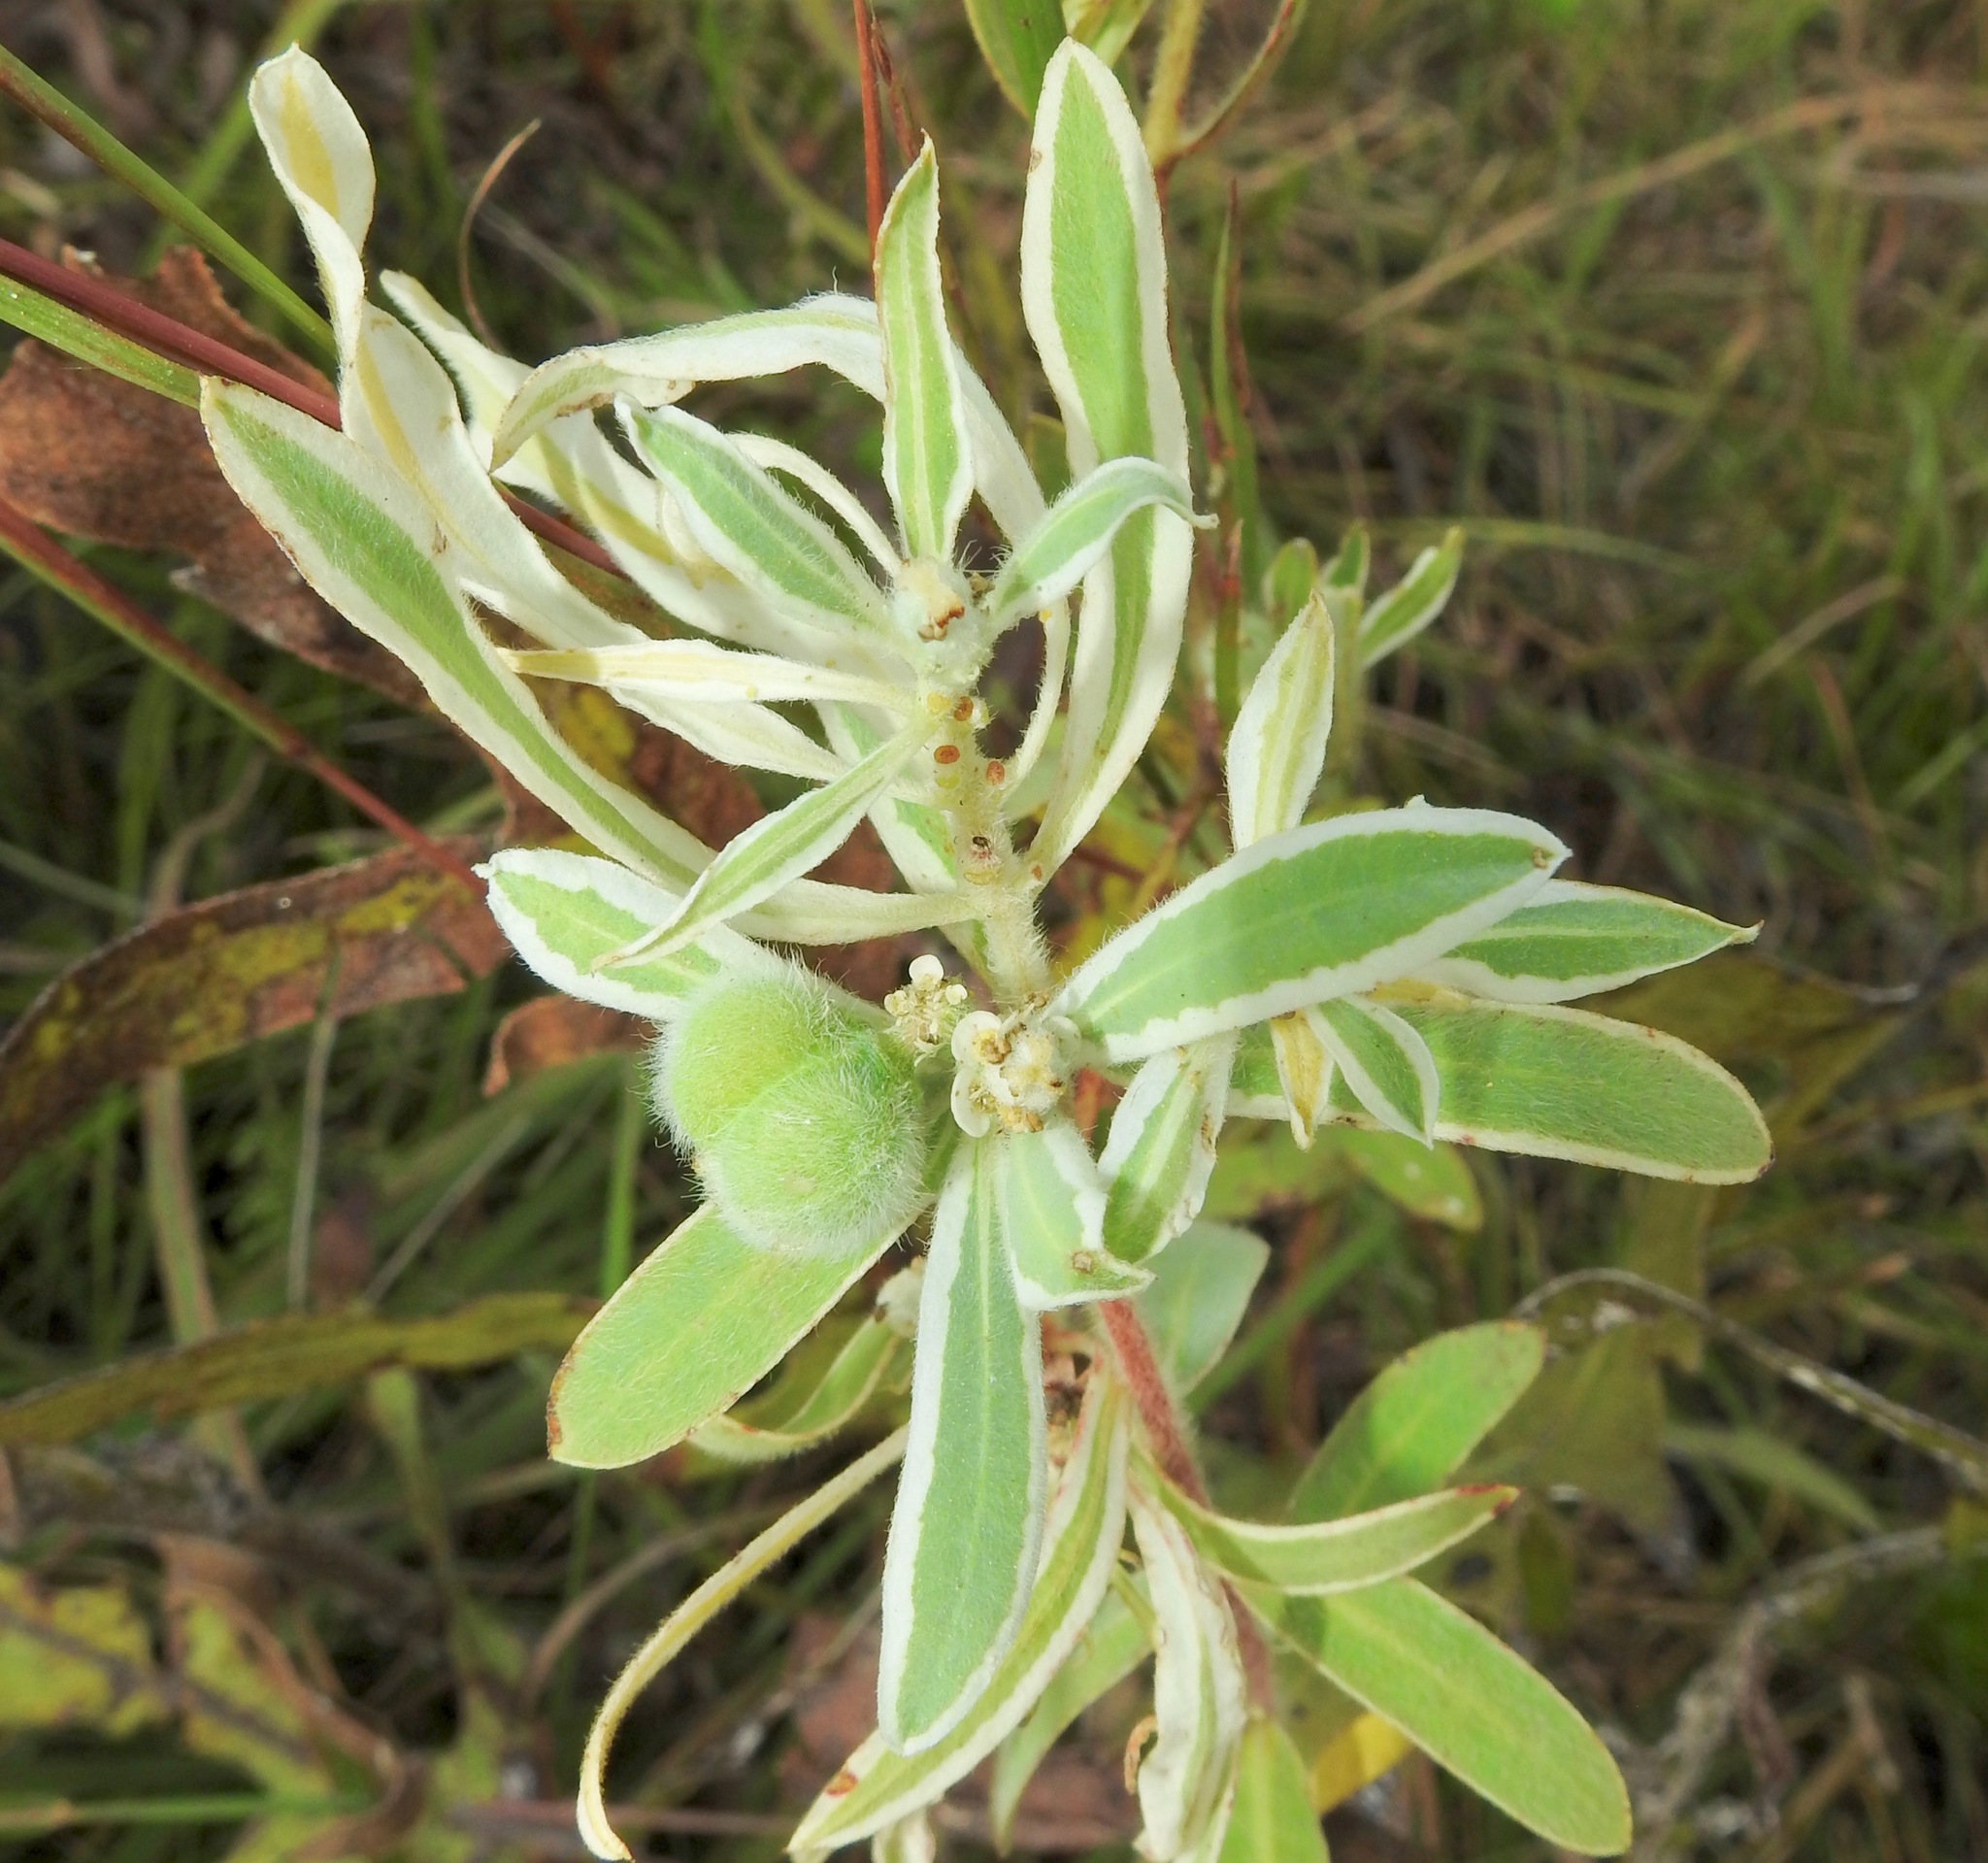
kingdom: Plantae
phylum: Tracheophyta
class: Magnoliopsida
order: Malpighiales
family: Euphorbiaceae
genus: Euphorbia
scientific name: Euphorbia bicolor
